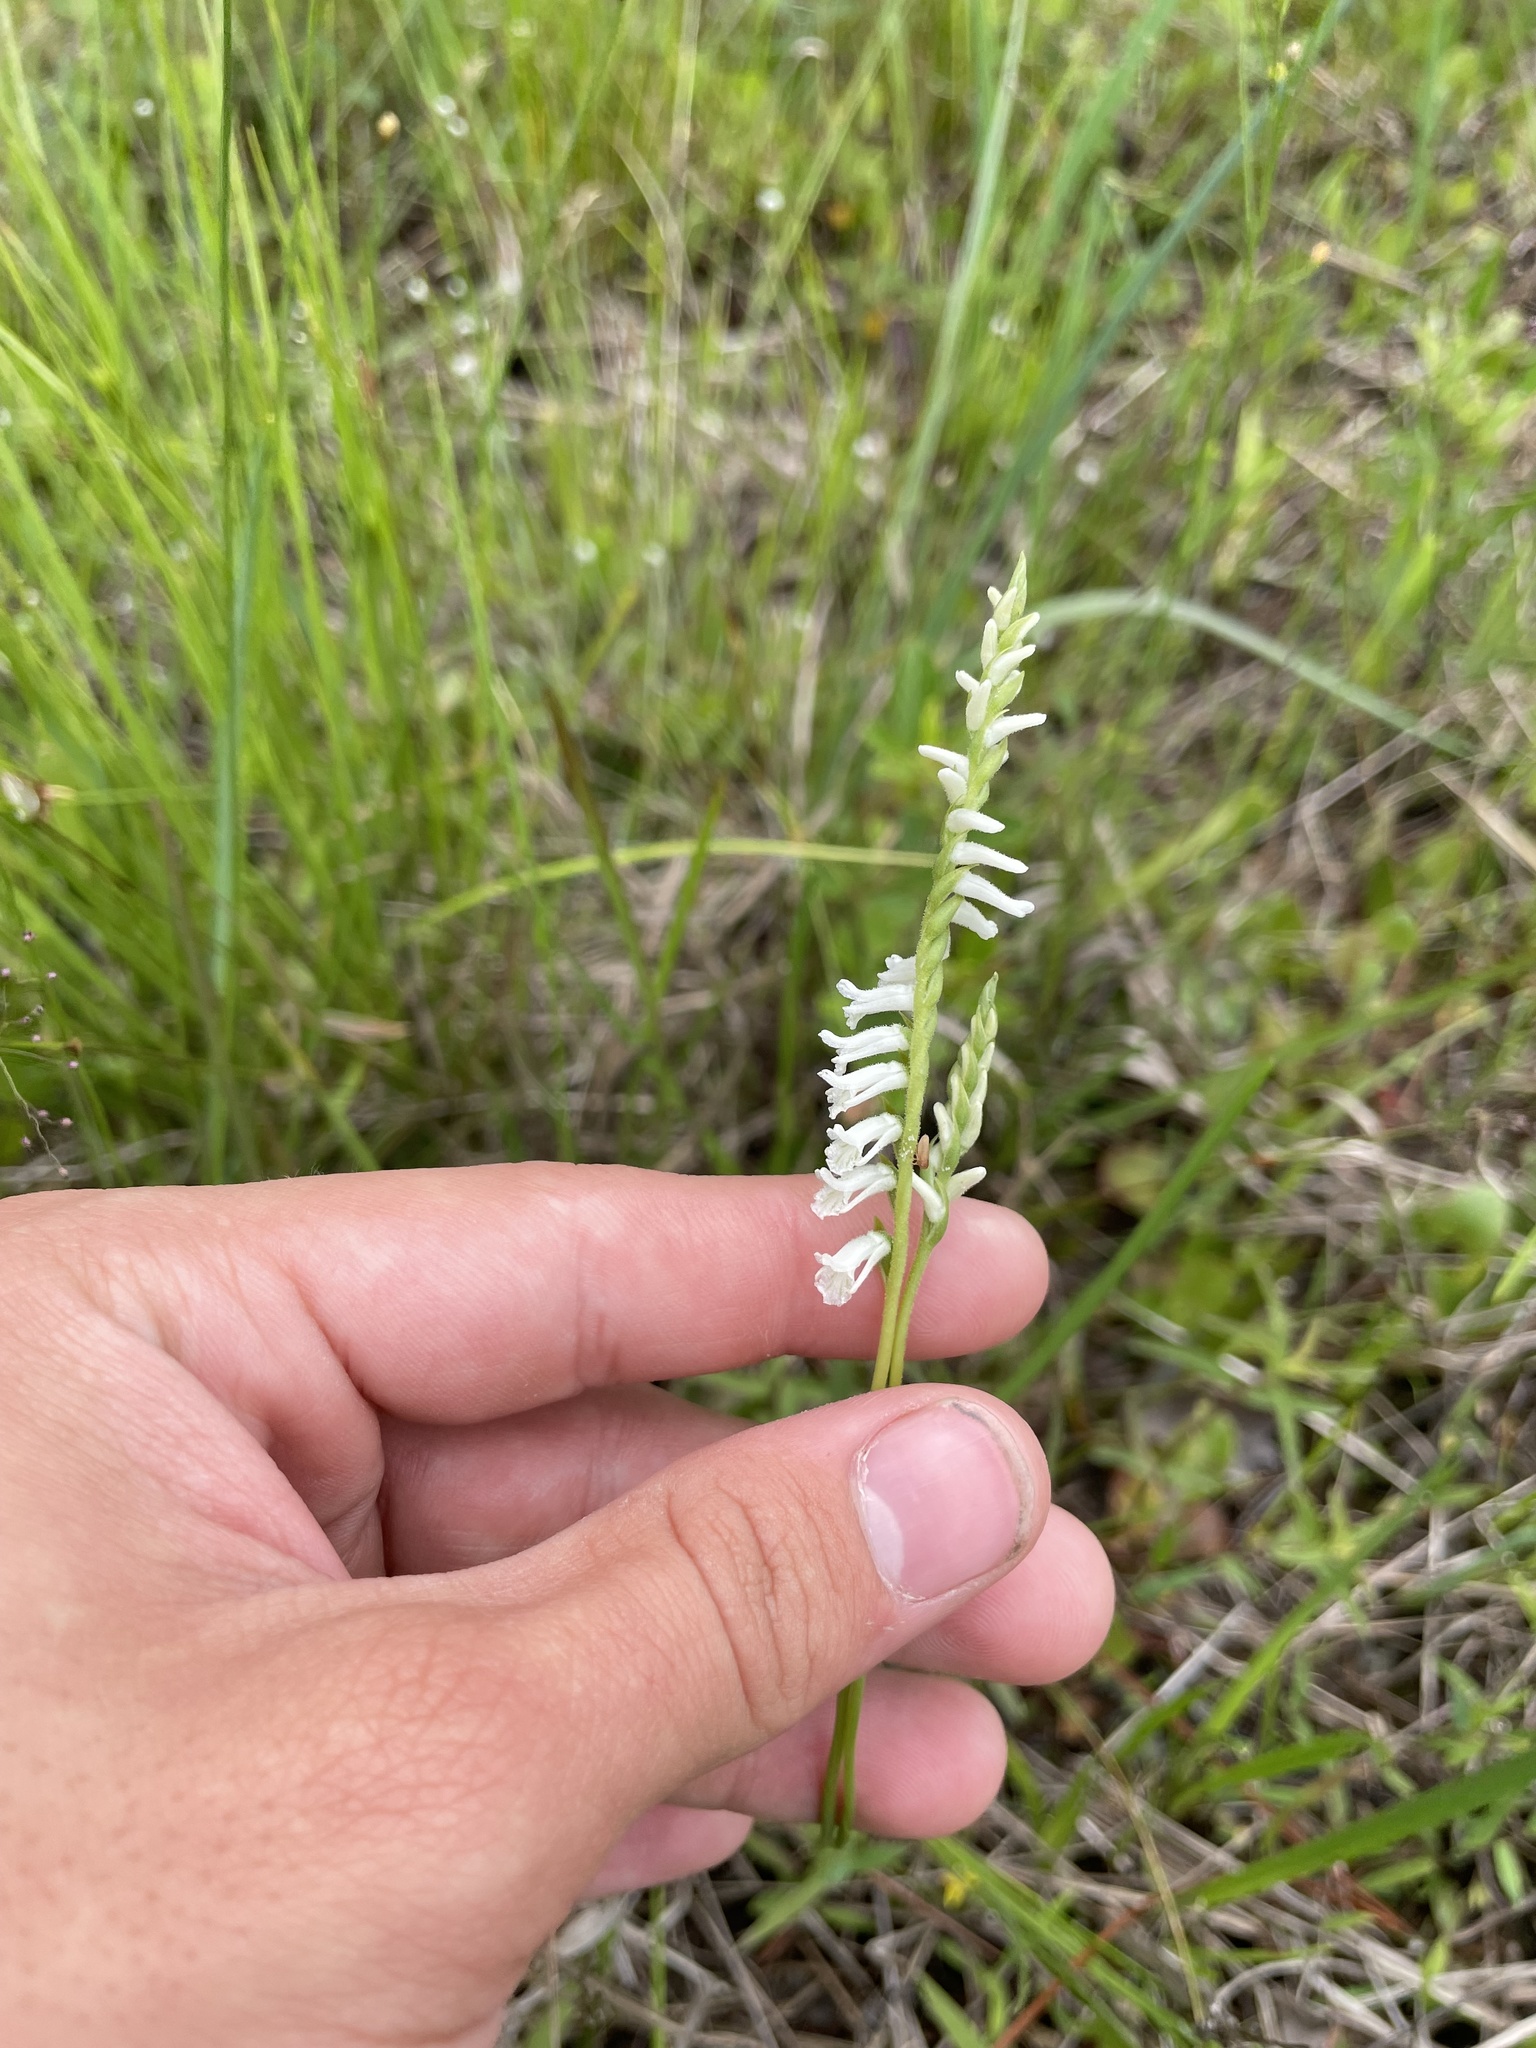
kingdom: Plantae
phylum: Tracheophyta
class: Liliopsida
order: Asparagales
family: Orchidaceae
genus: Spiranthes
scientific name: Spiranthes praecox
